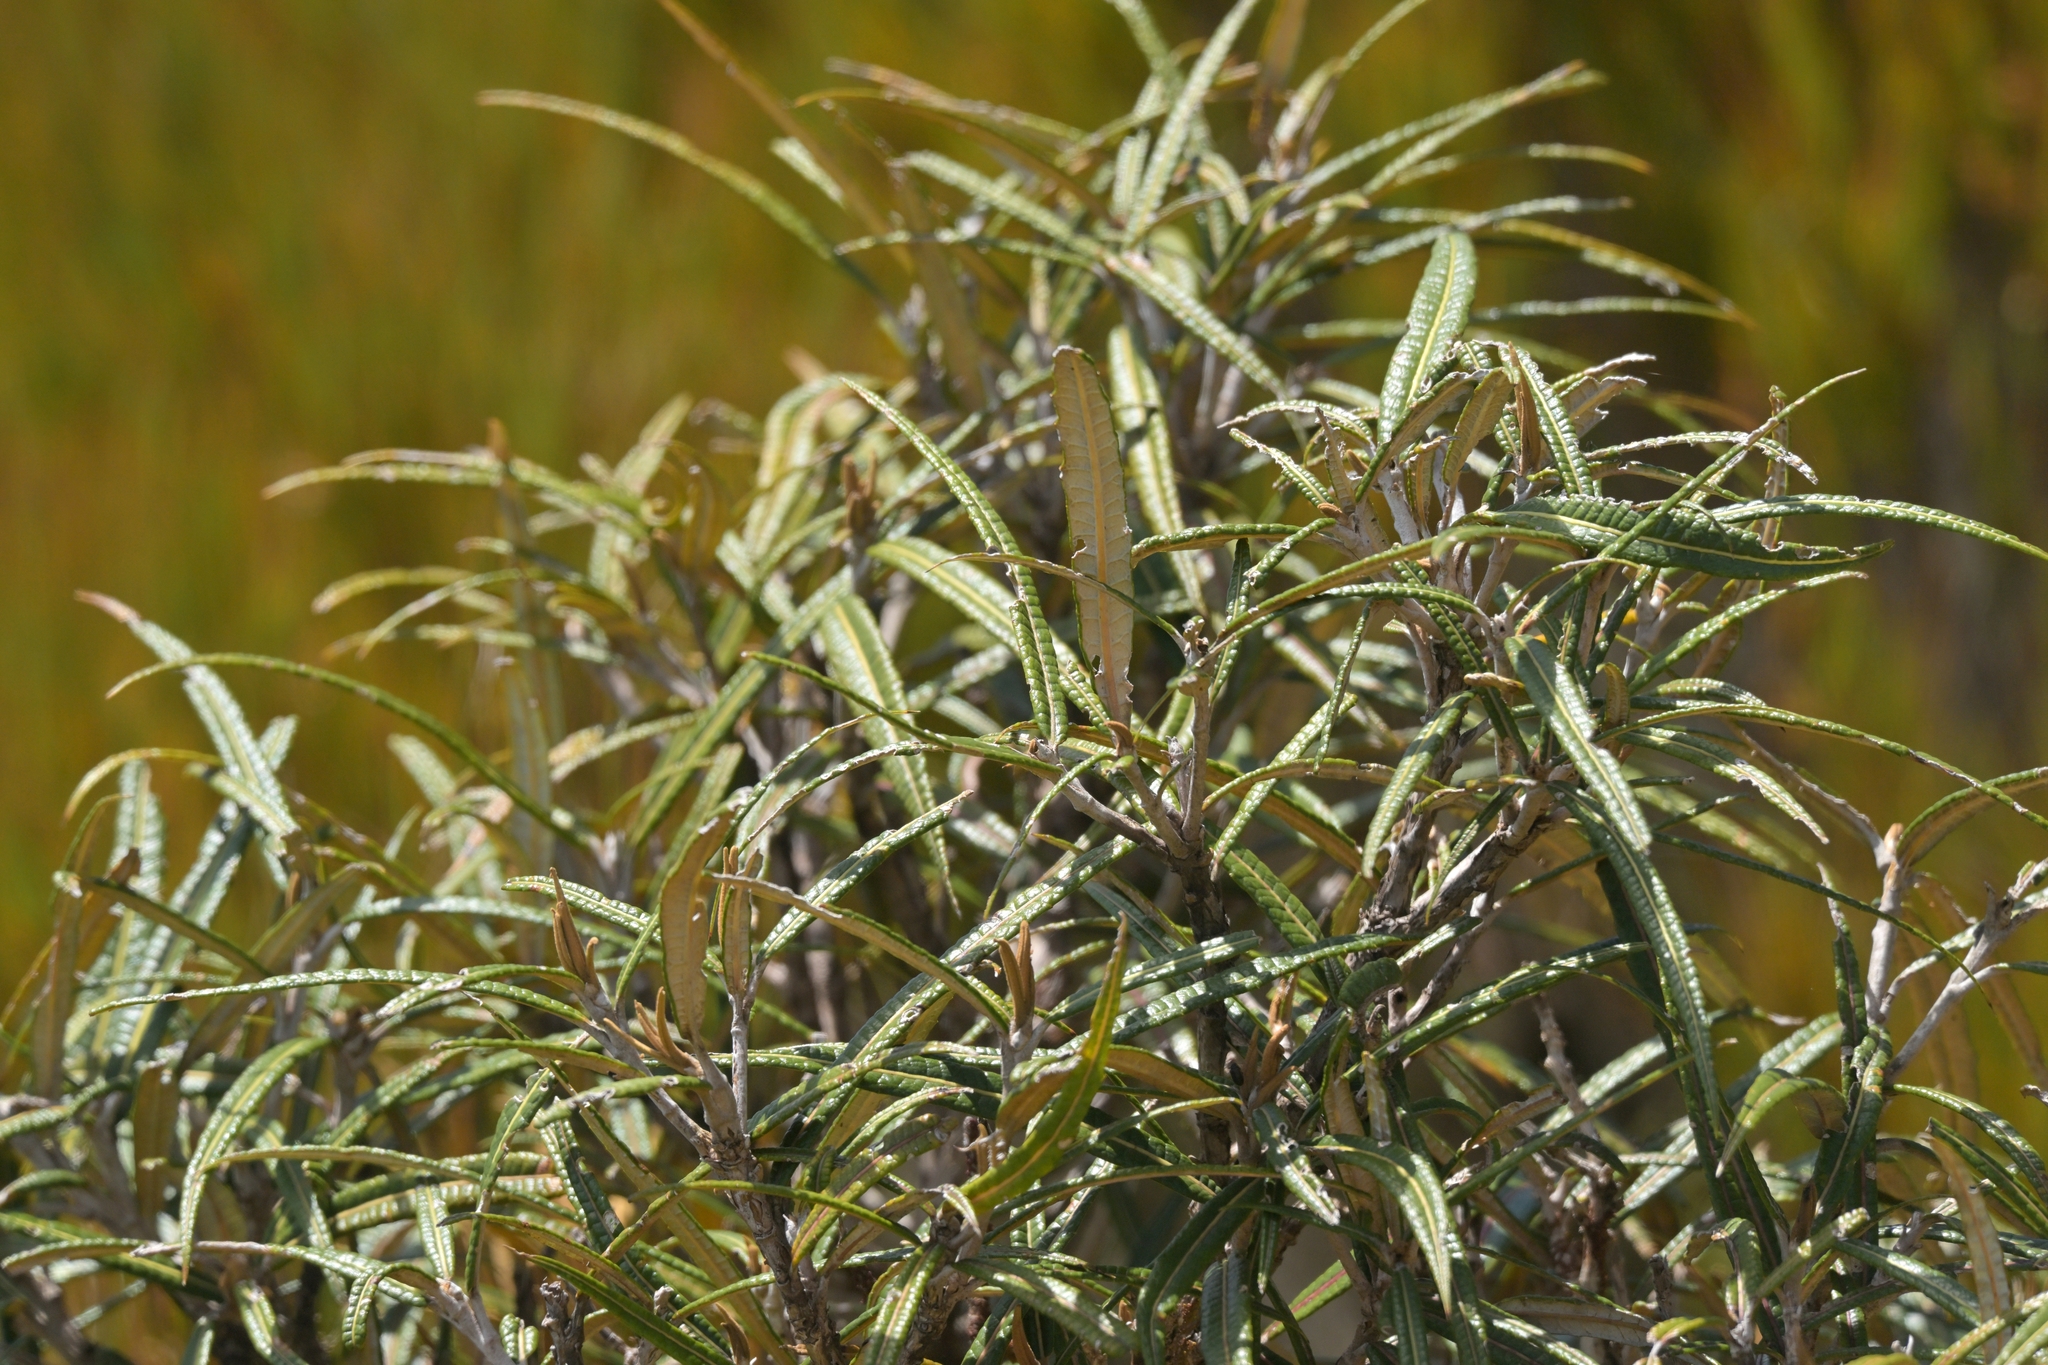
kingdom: Plantae
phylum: Tracheophyta
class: Magnoliopsida
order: Asterales
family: Asteraceae
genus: Olearia
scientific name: Olearia lacunosa
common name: Lancewood tree daisy
